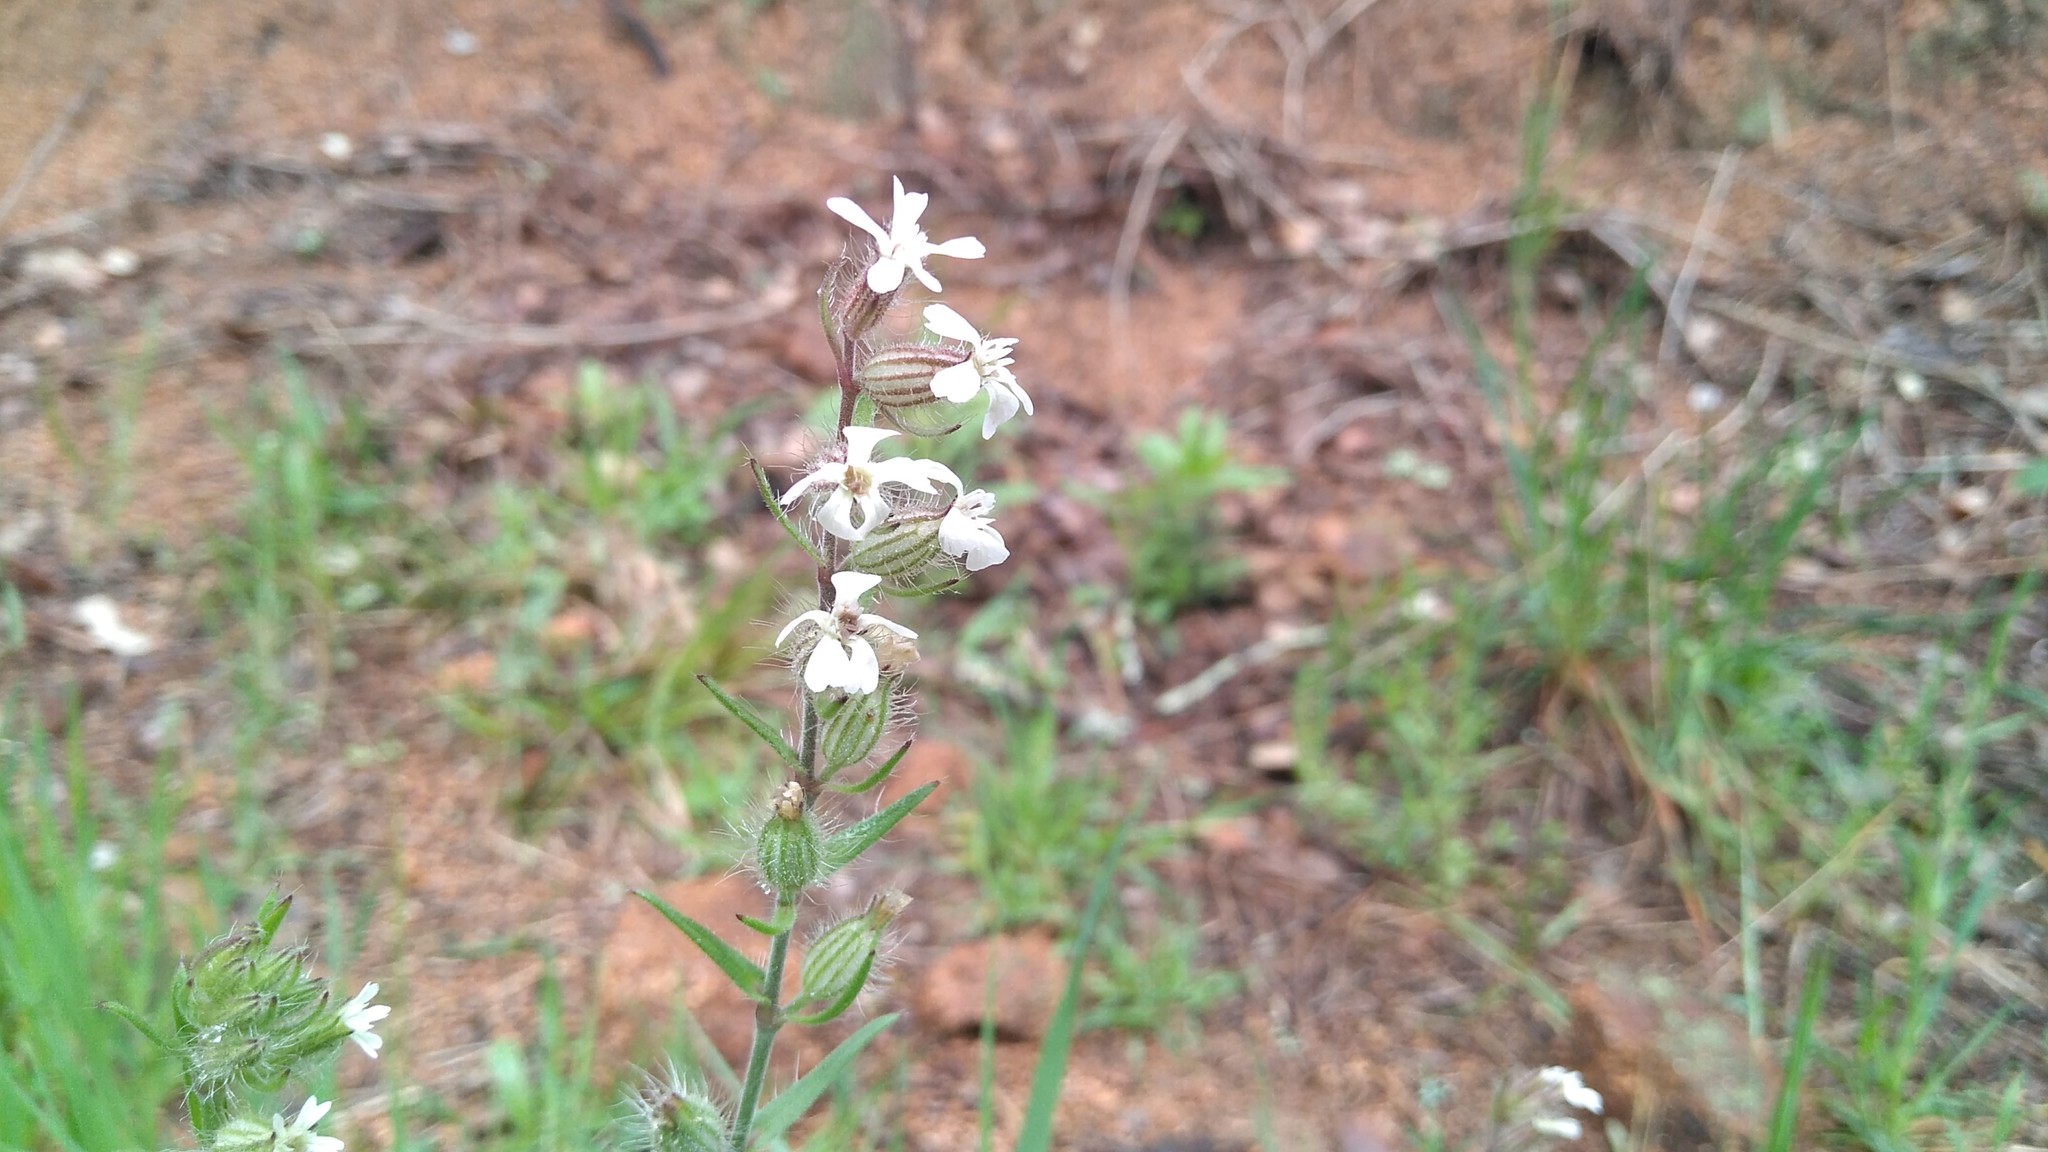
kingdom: Plantae
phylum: Tracheophyta
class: Magnoliopsida
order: Caryophyllales
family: Caryophyllaceae
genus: Silene
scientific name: Silene gallica
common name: Small-flowered catchfly
